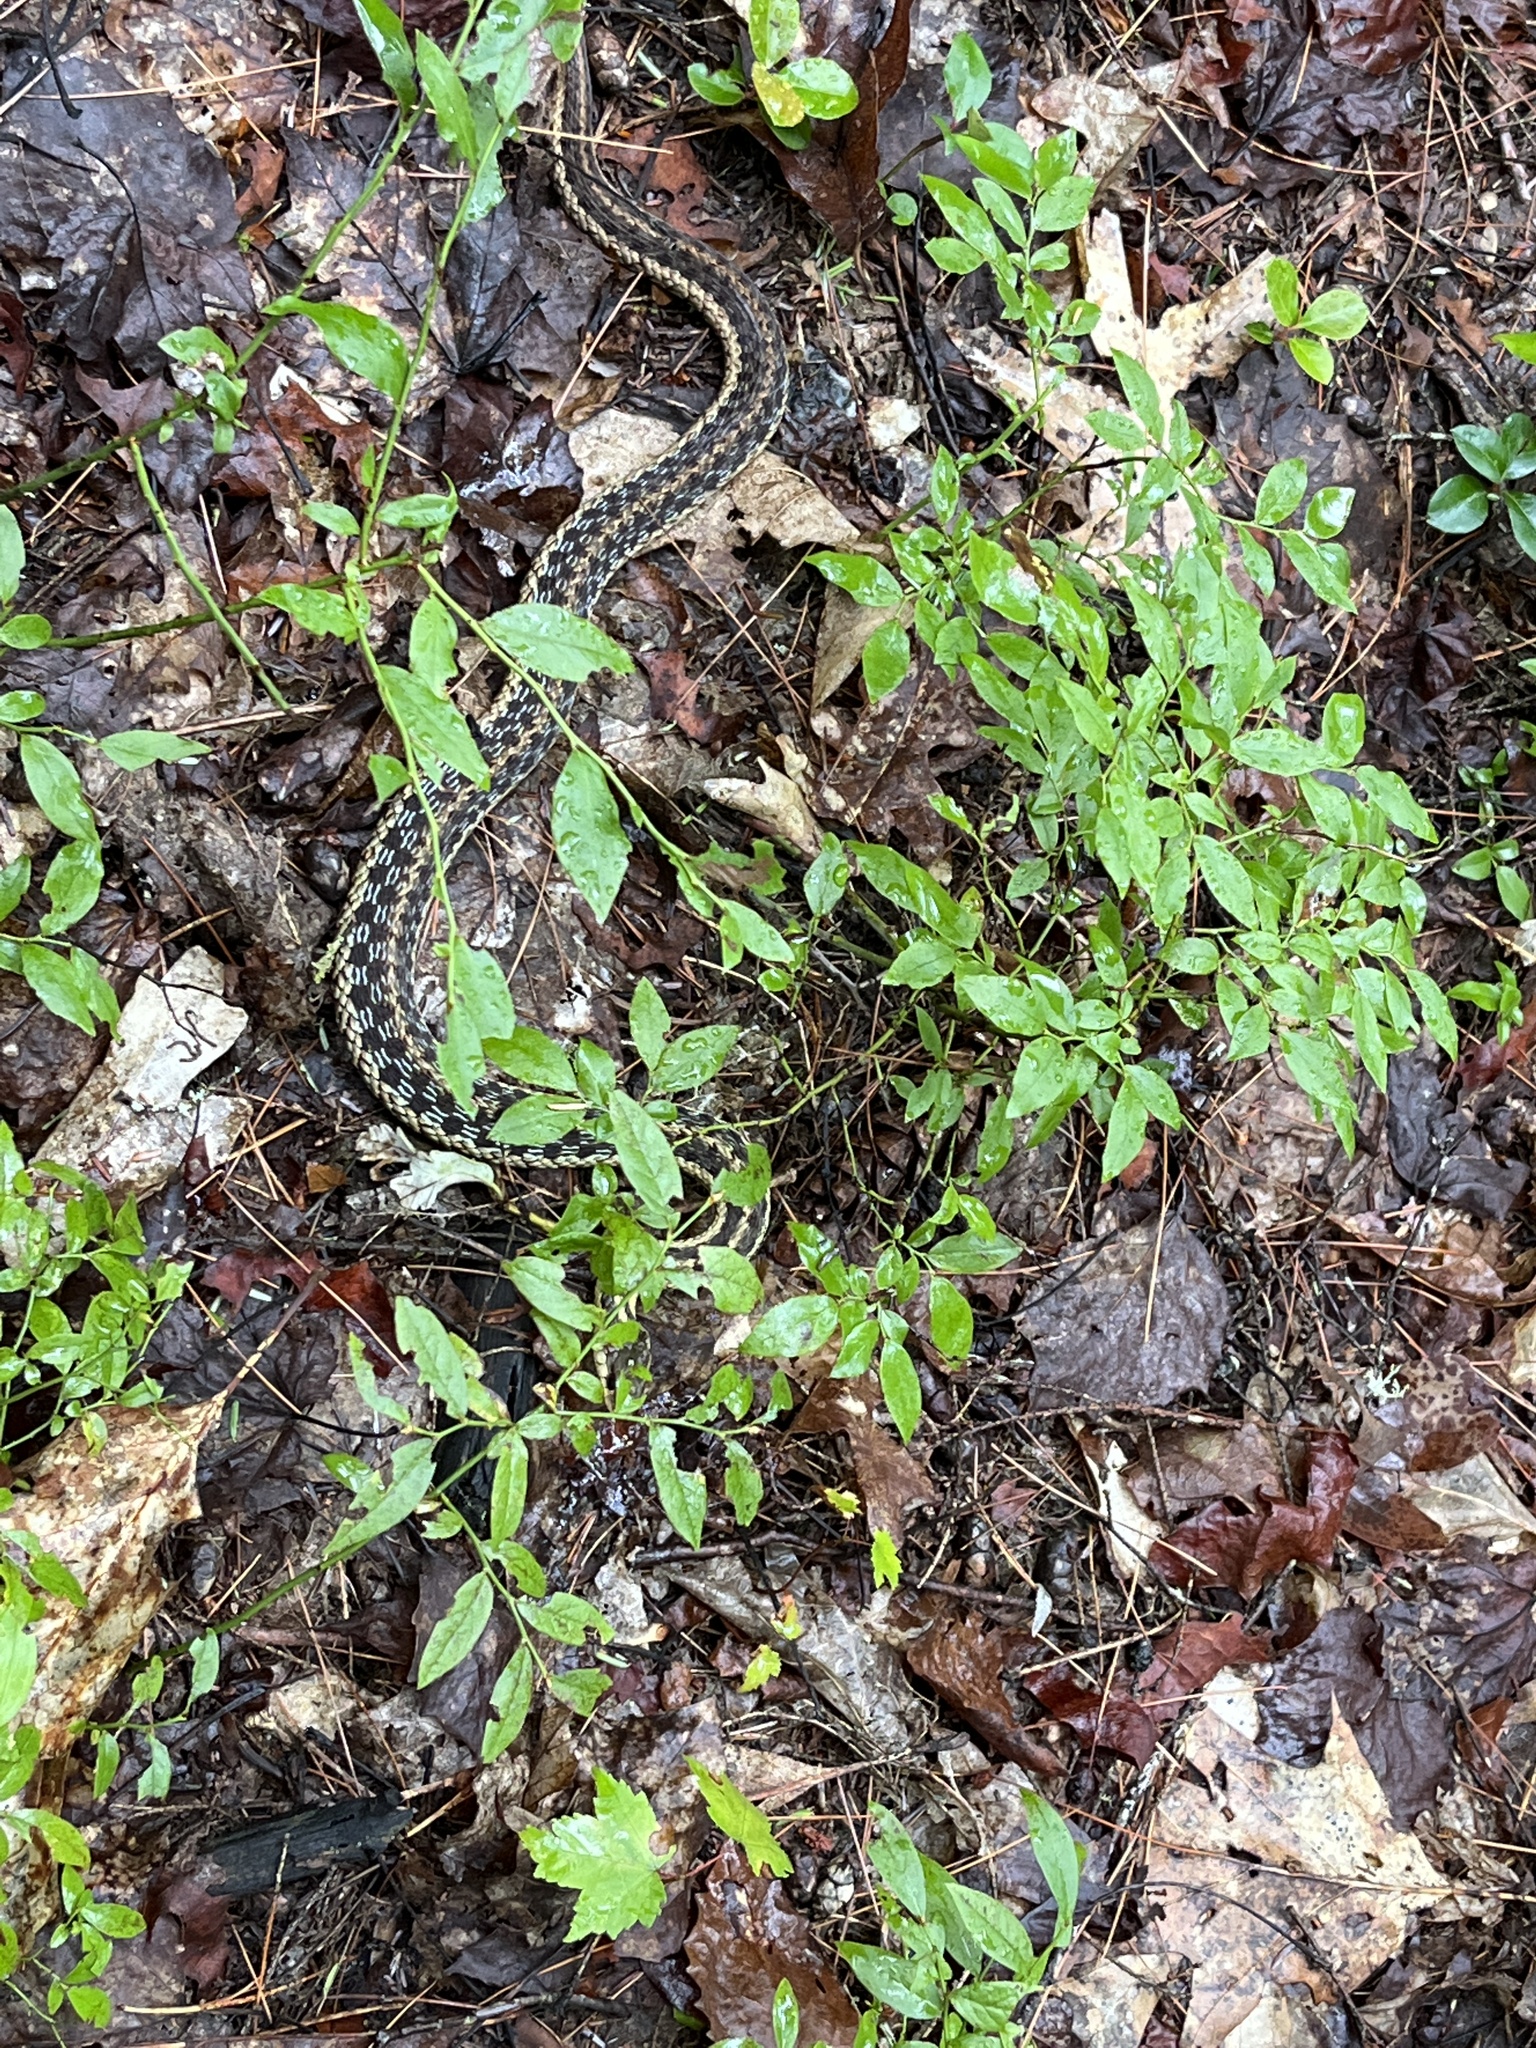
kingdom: Animalia
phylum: Chordata
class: Squamata
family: Colubridae
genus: Thamnophis
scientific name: Thamnophis sirtalis
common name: Common garter snake
